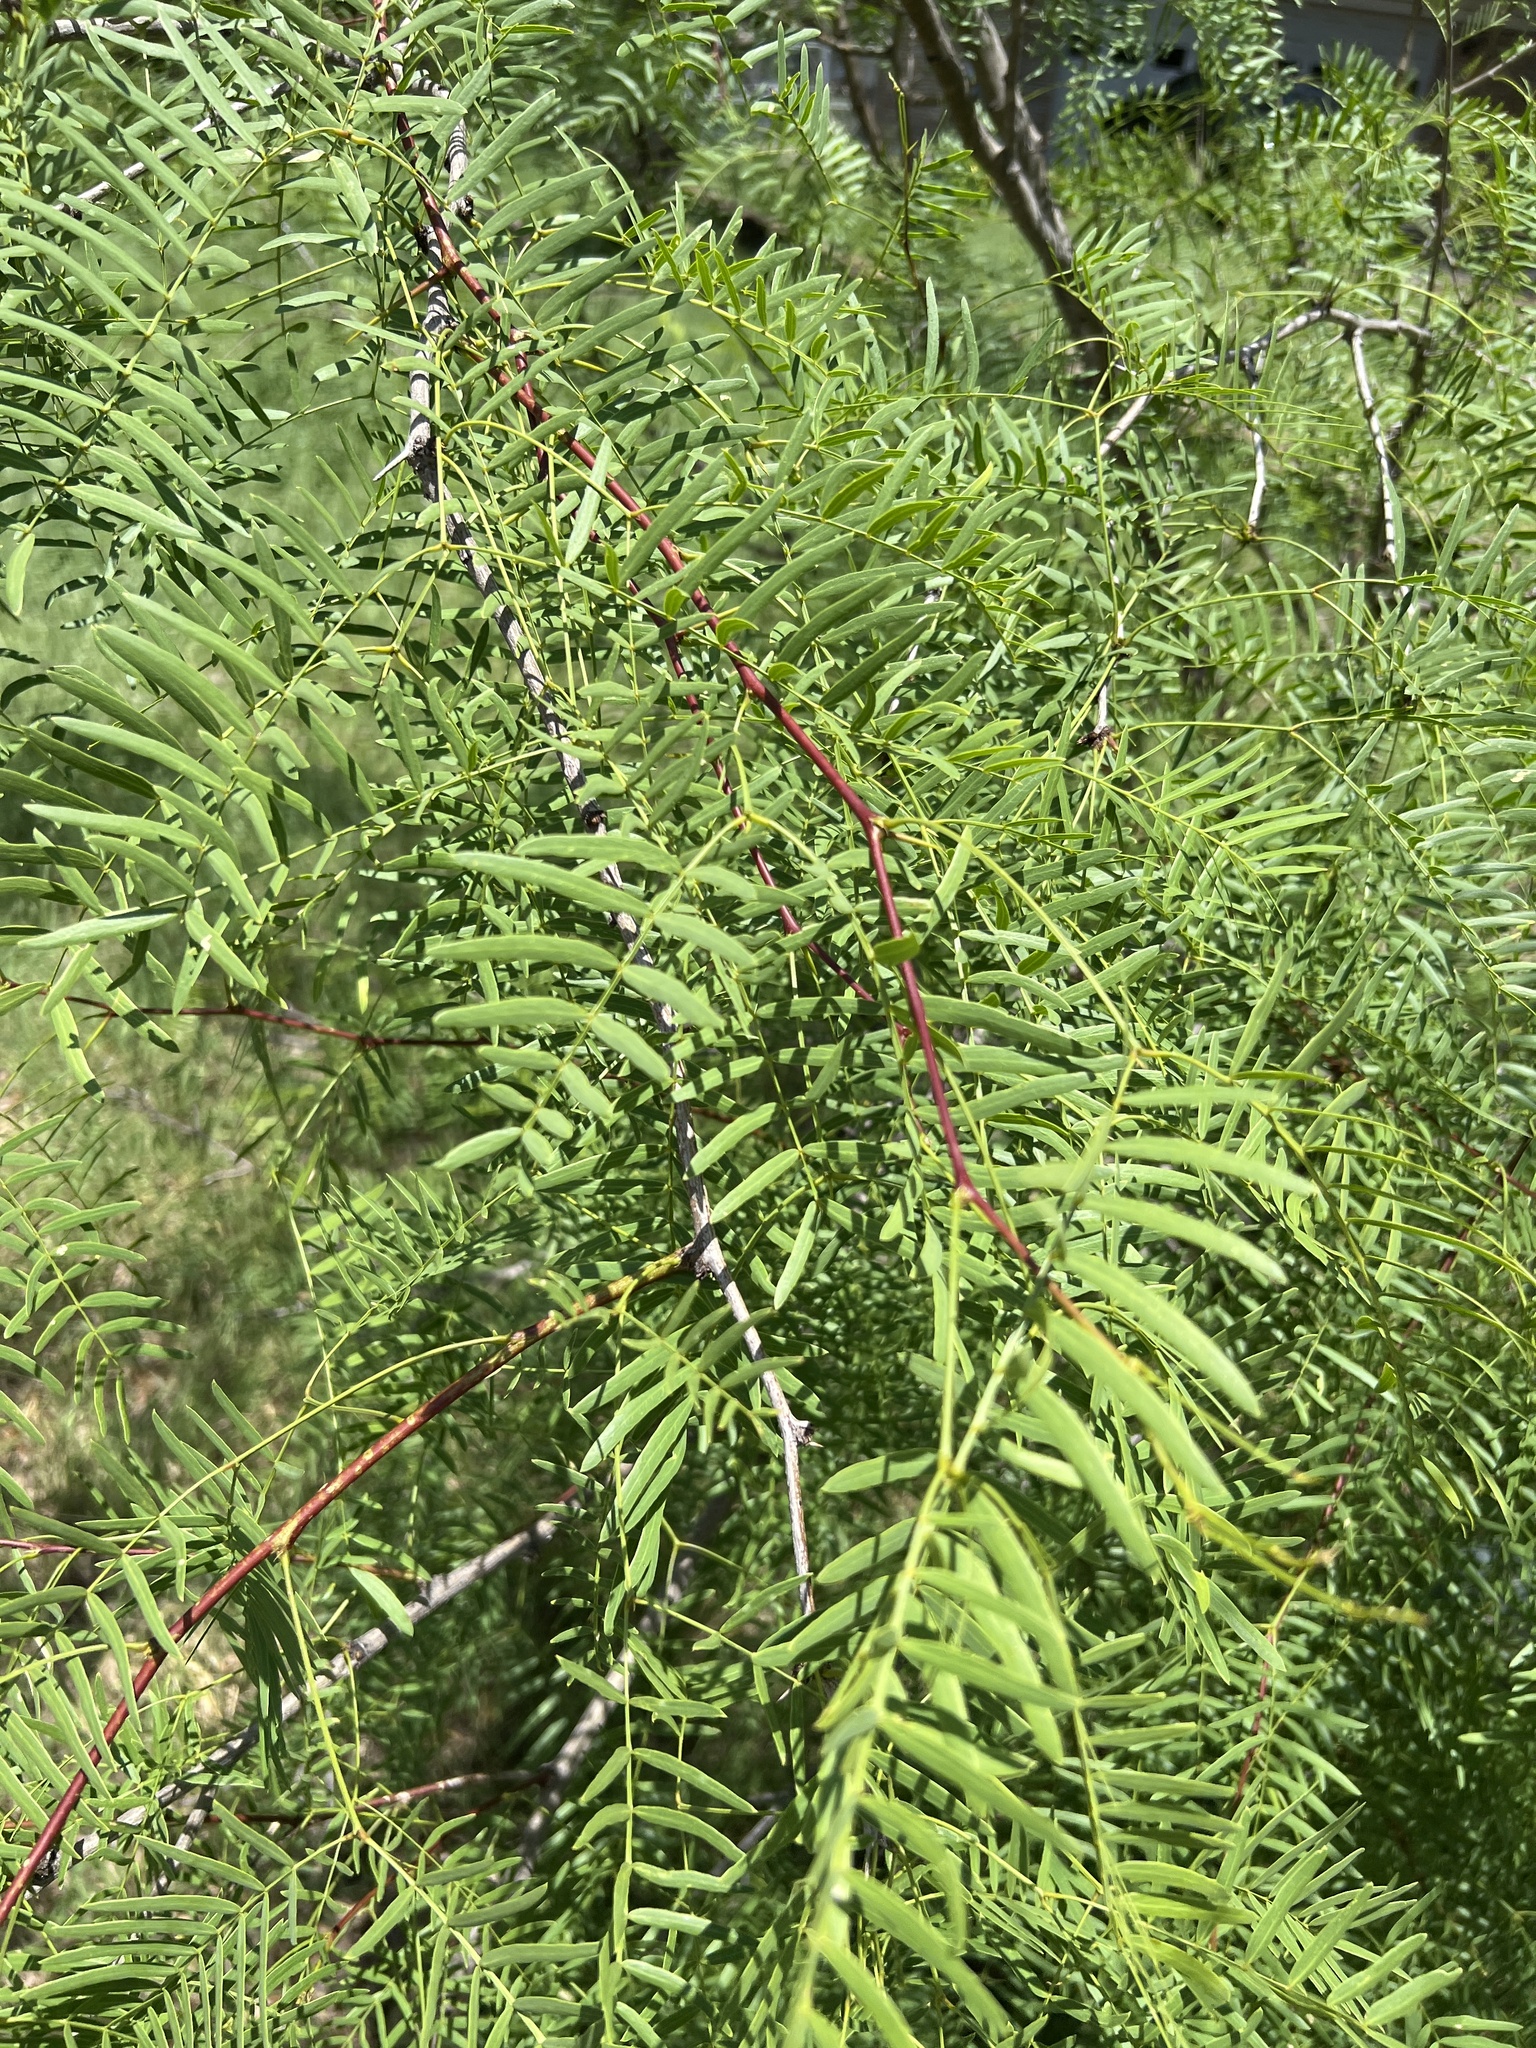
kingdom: Plantae
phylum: Tracheophyta
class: Magnoliopsida
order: Fabales
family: Fabaceae
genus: Prosopis
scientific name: Prosopis glandulosa
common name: Honey mesquite
